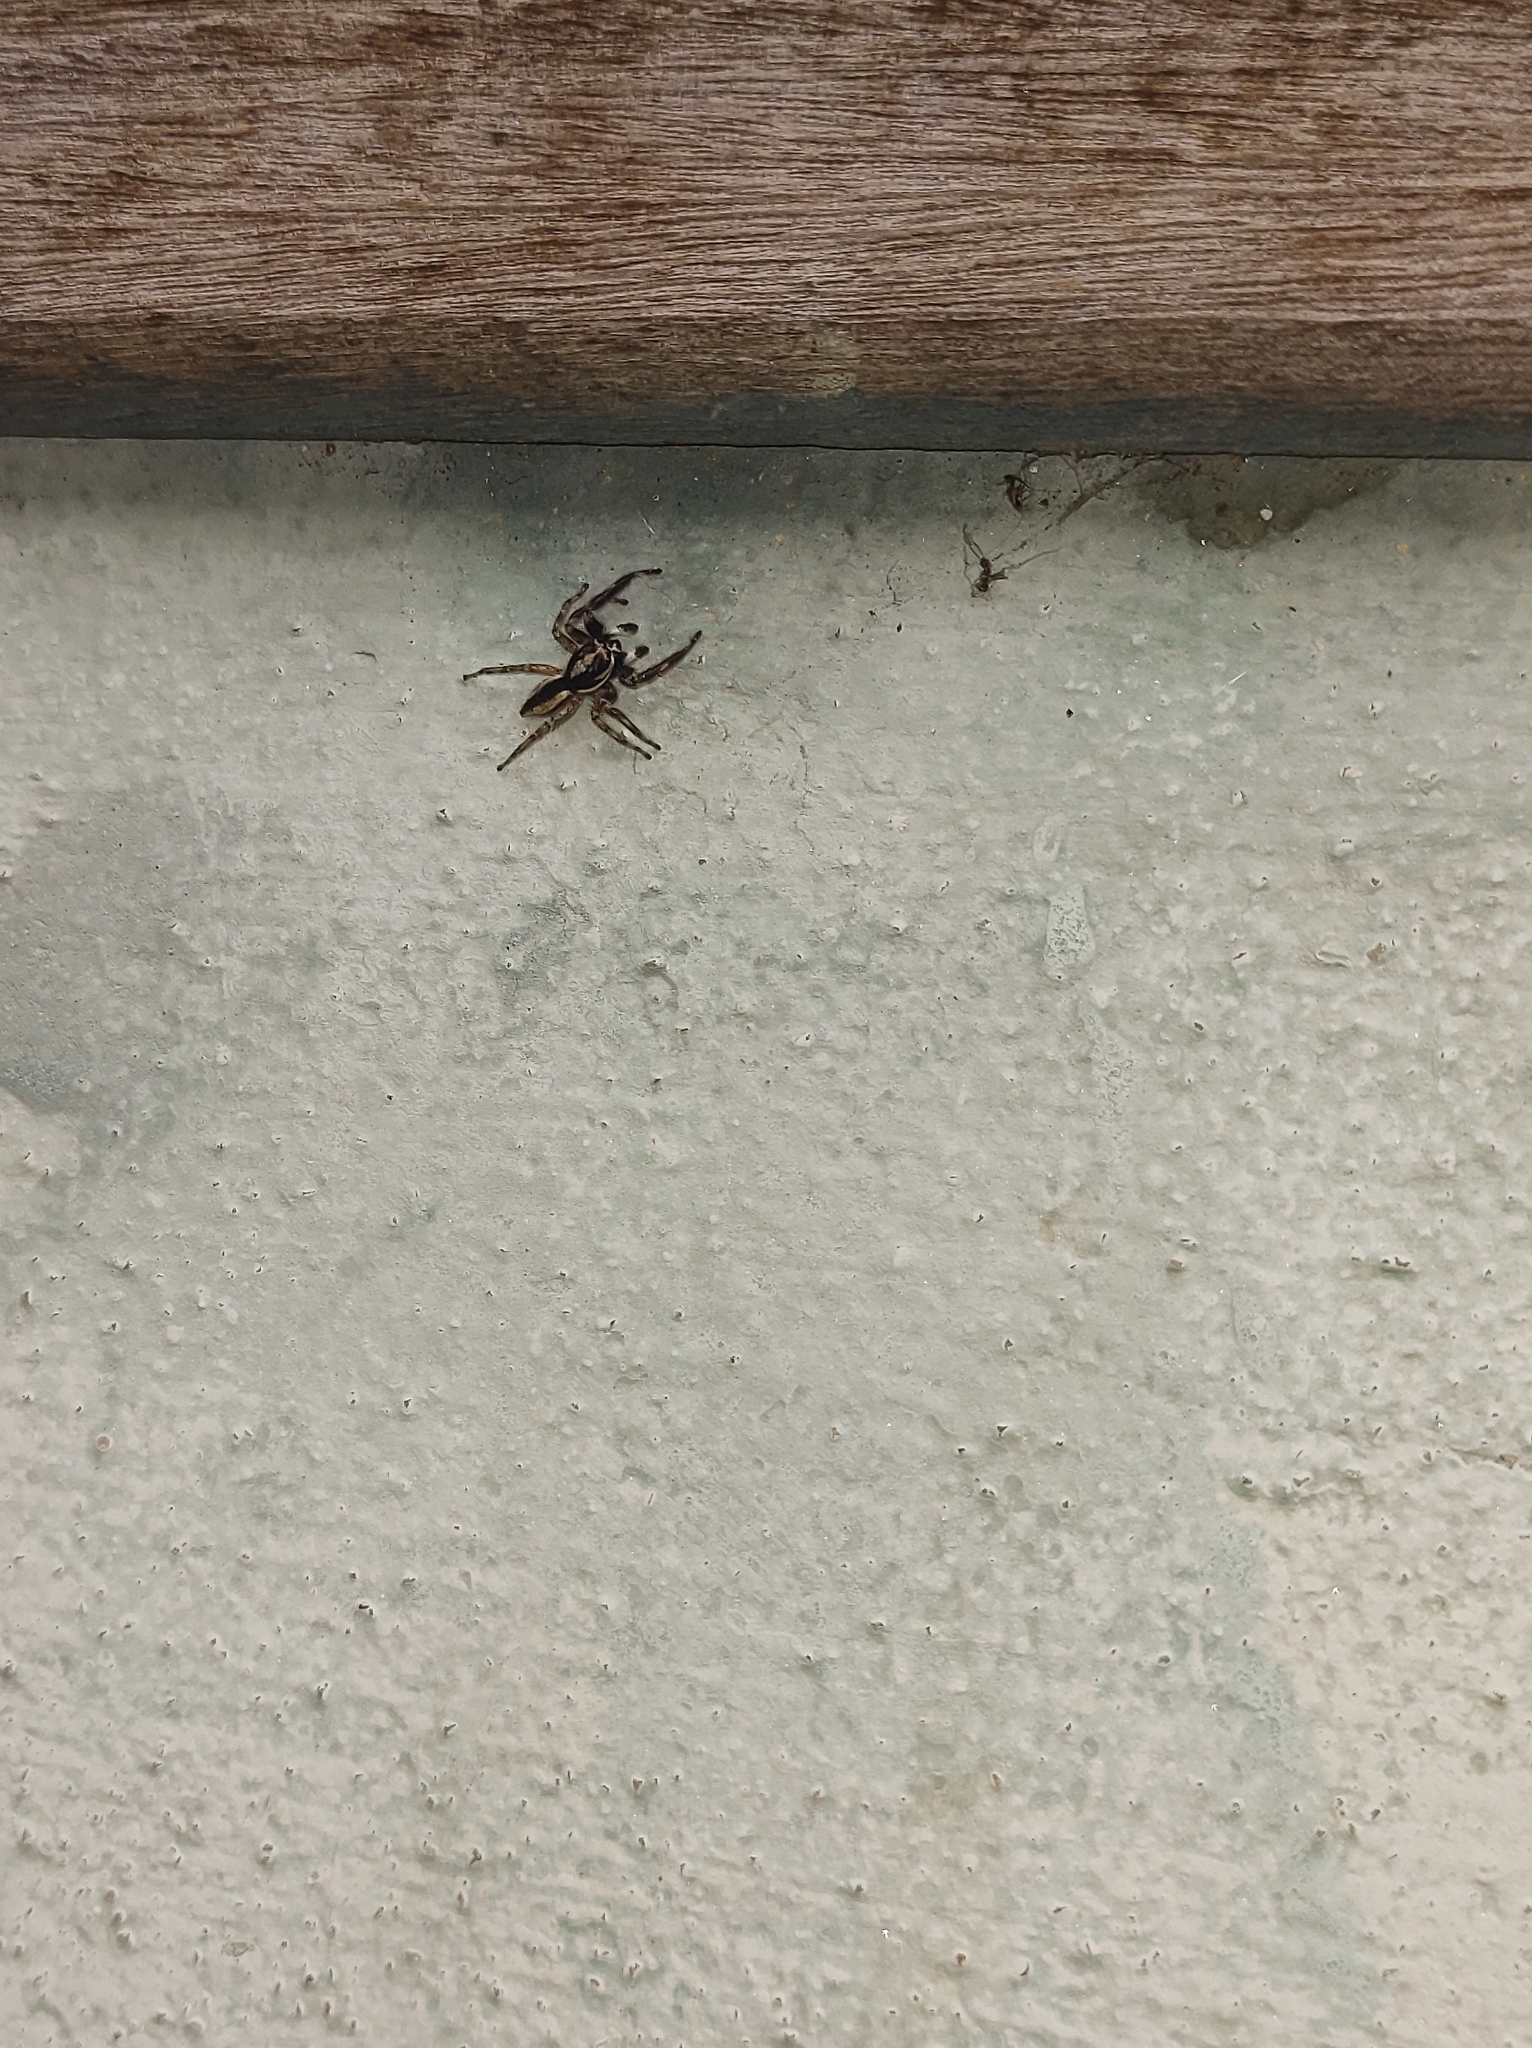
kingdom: Animalia
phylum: Arthropoda
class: Arachnida
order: Araneae
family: Salticidae
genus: Menemerus
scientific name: Menemerus bivittatus
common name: Gray wall jumper
